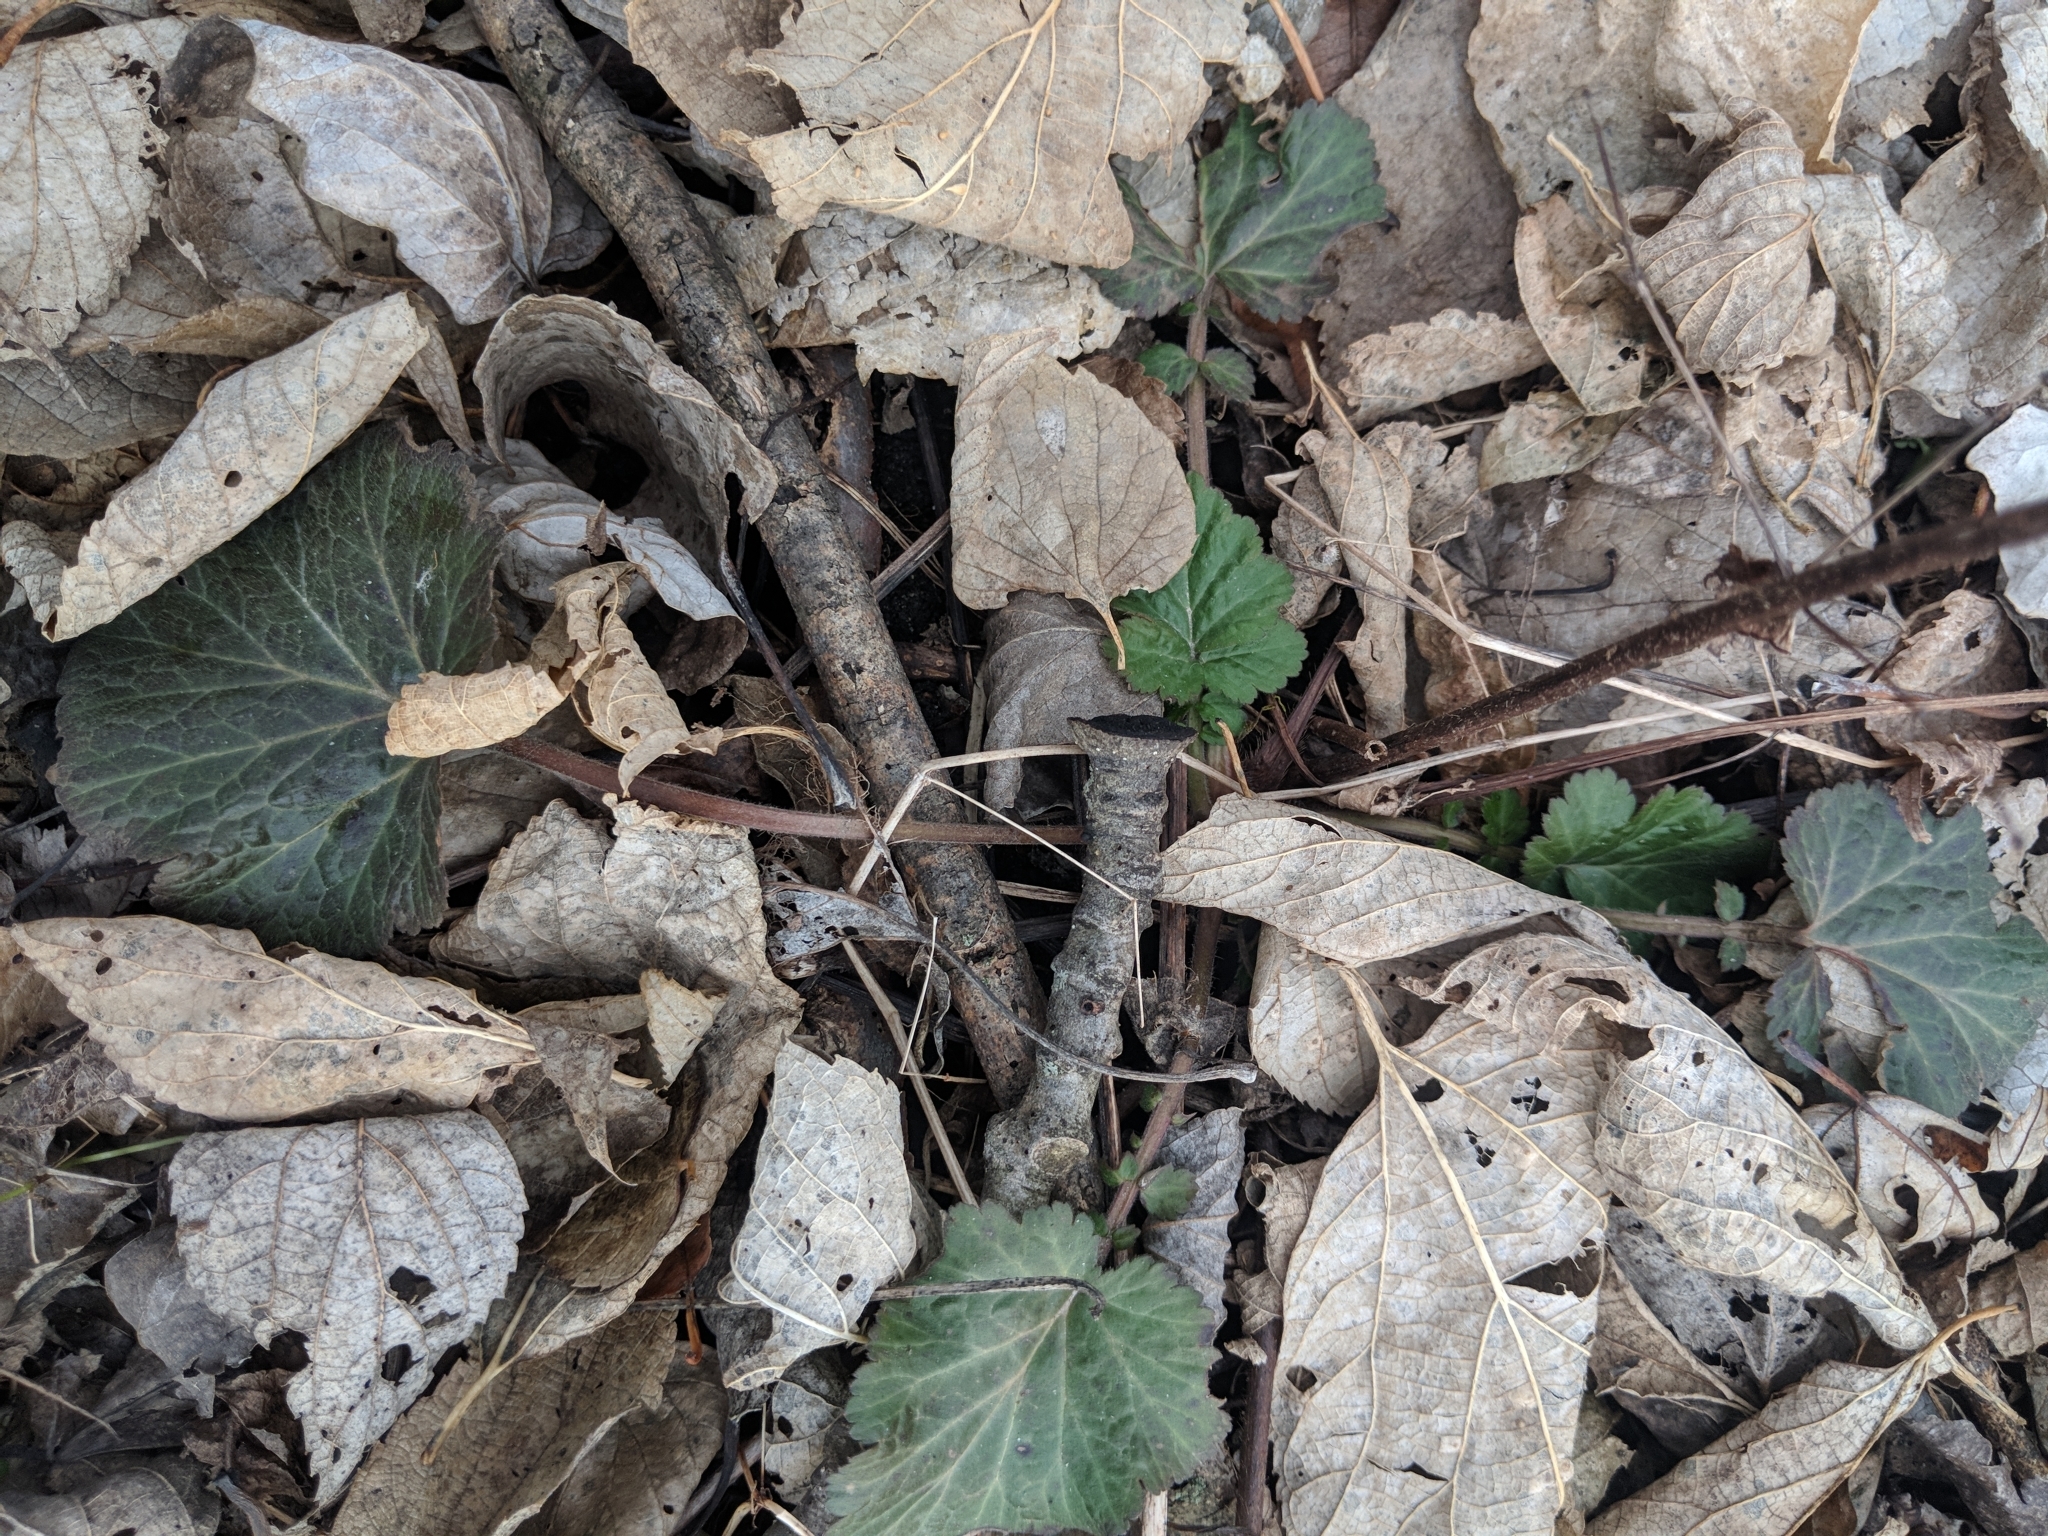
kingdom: Plantae
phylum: Tracheophyta
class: Magnoliopsida
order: Rosales
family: Rosaceae
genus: Geum
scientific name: Geum canadense
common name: White avens
